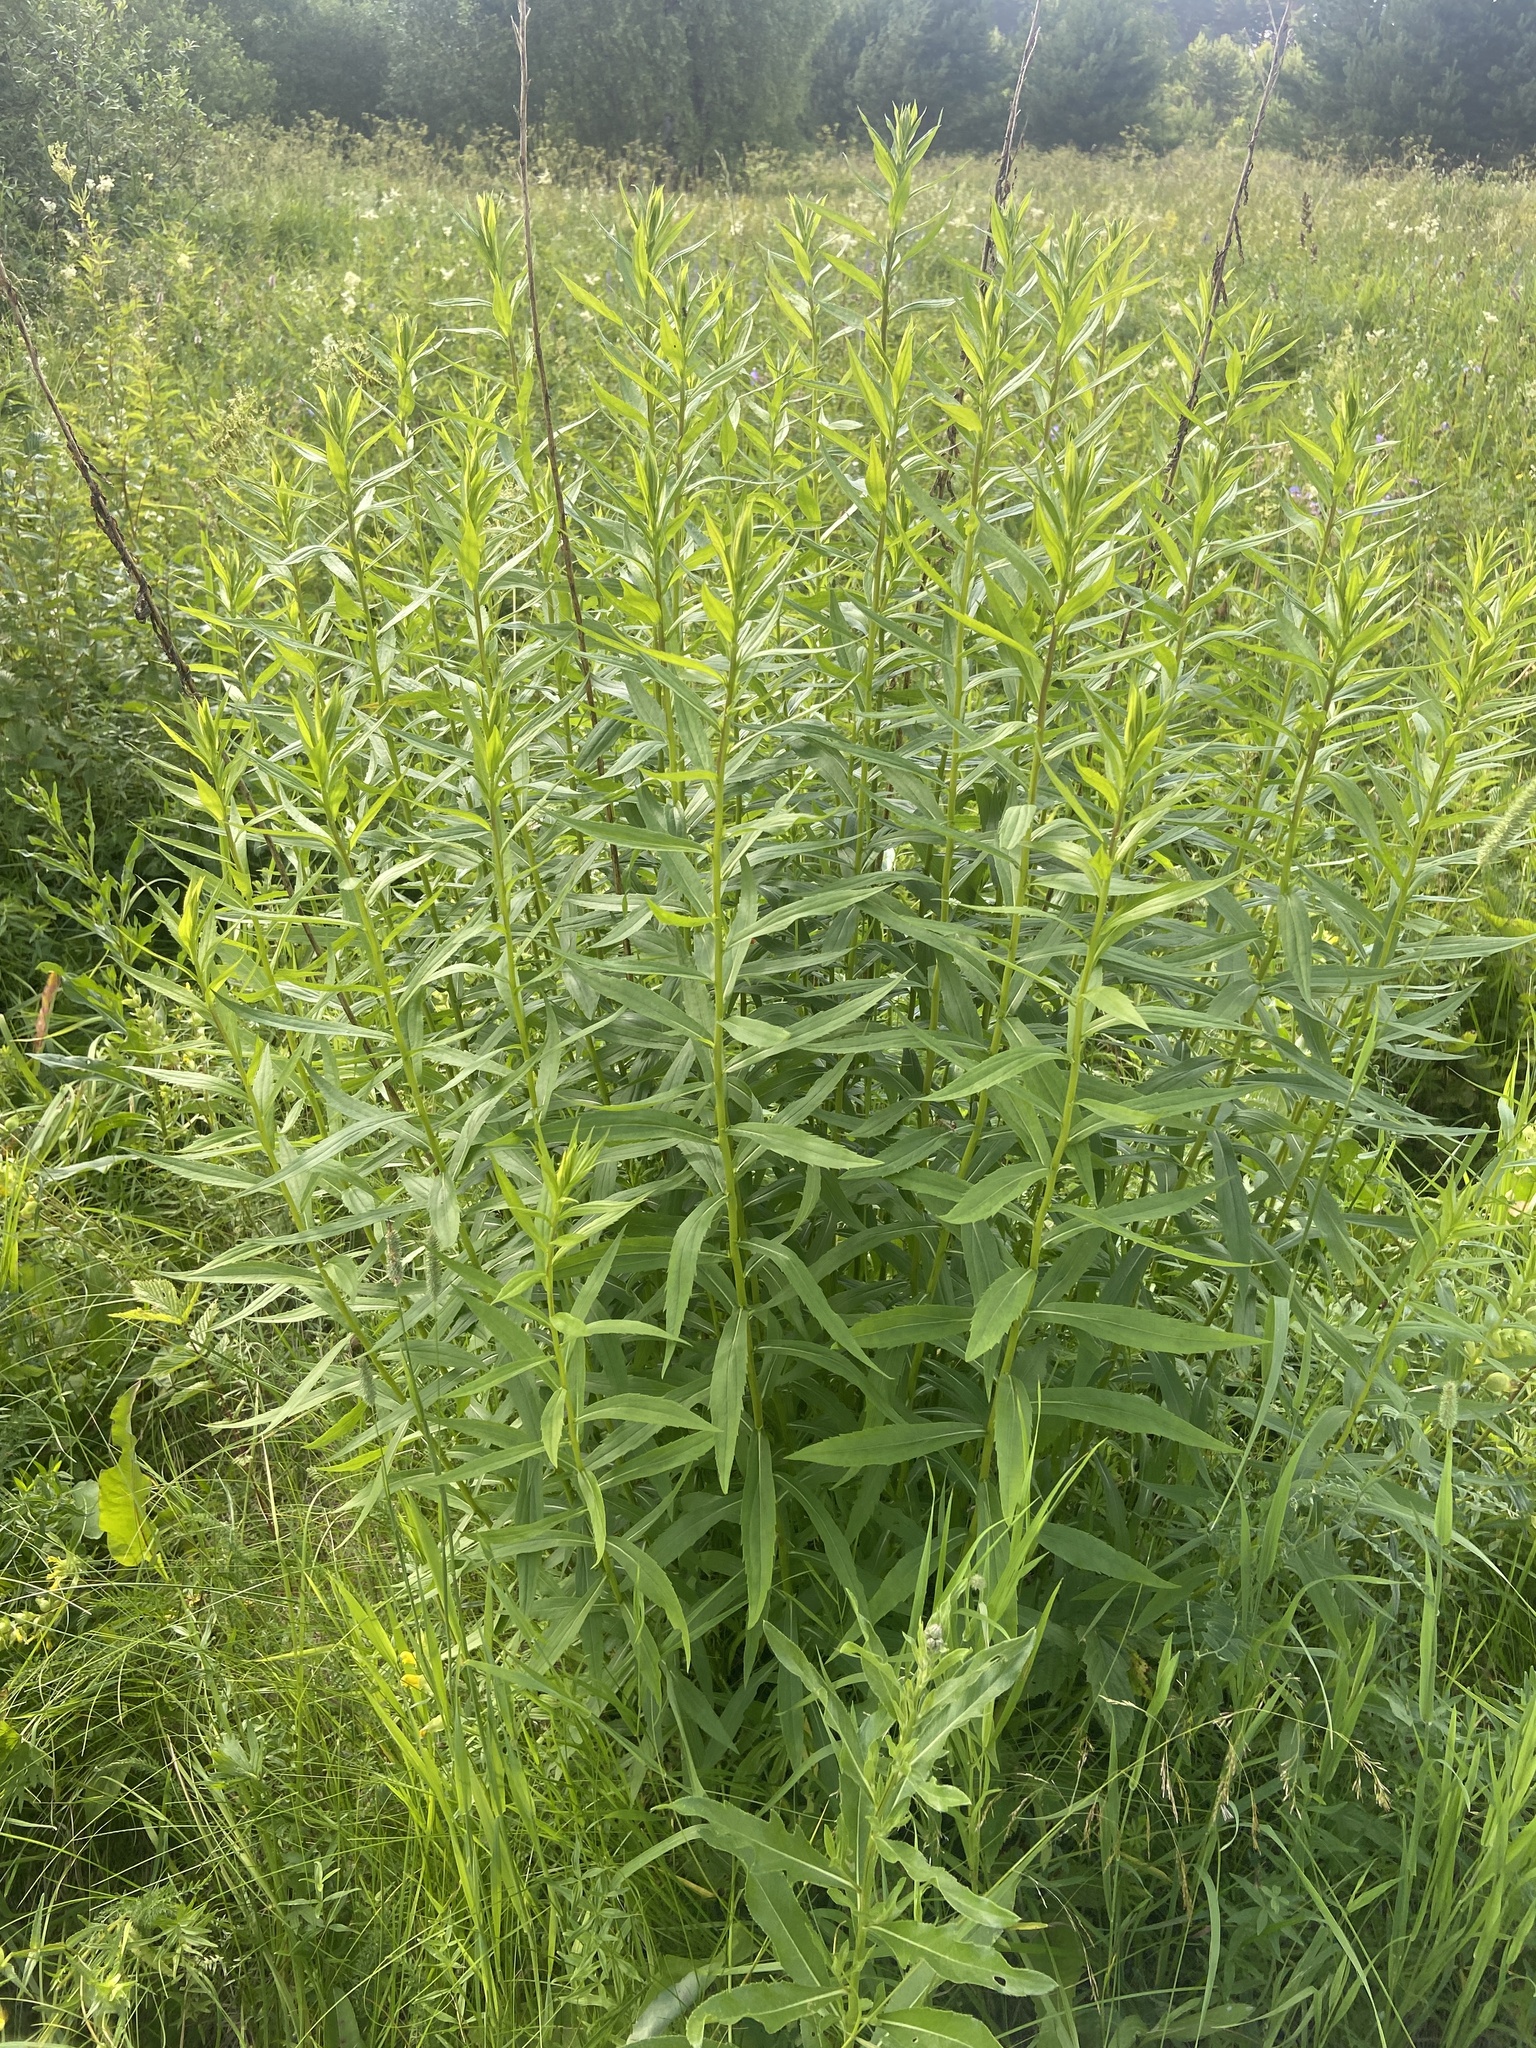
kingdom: Plantae
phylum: Tracheophyta
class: Magnoliopsida
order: Asterales
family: Asteraceae
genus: Solidago
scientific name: Solidago canadensis
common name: Canada goldenrod
